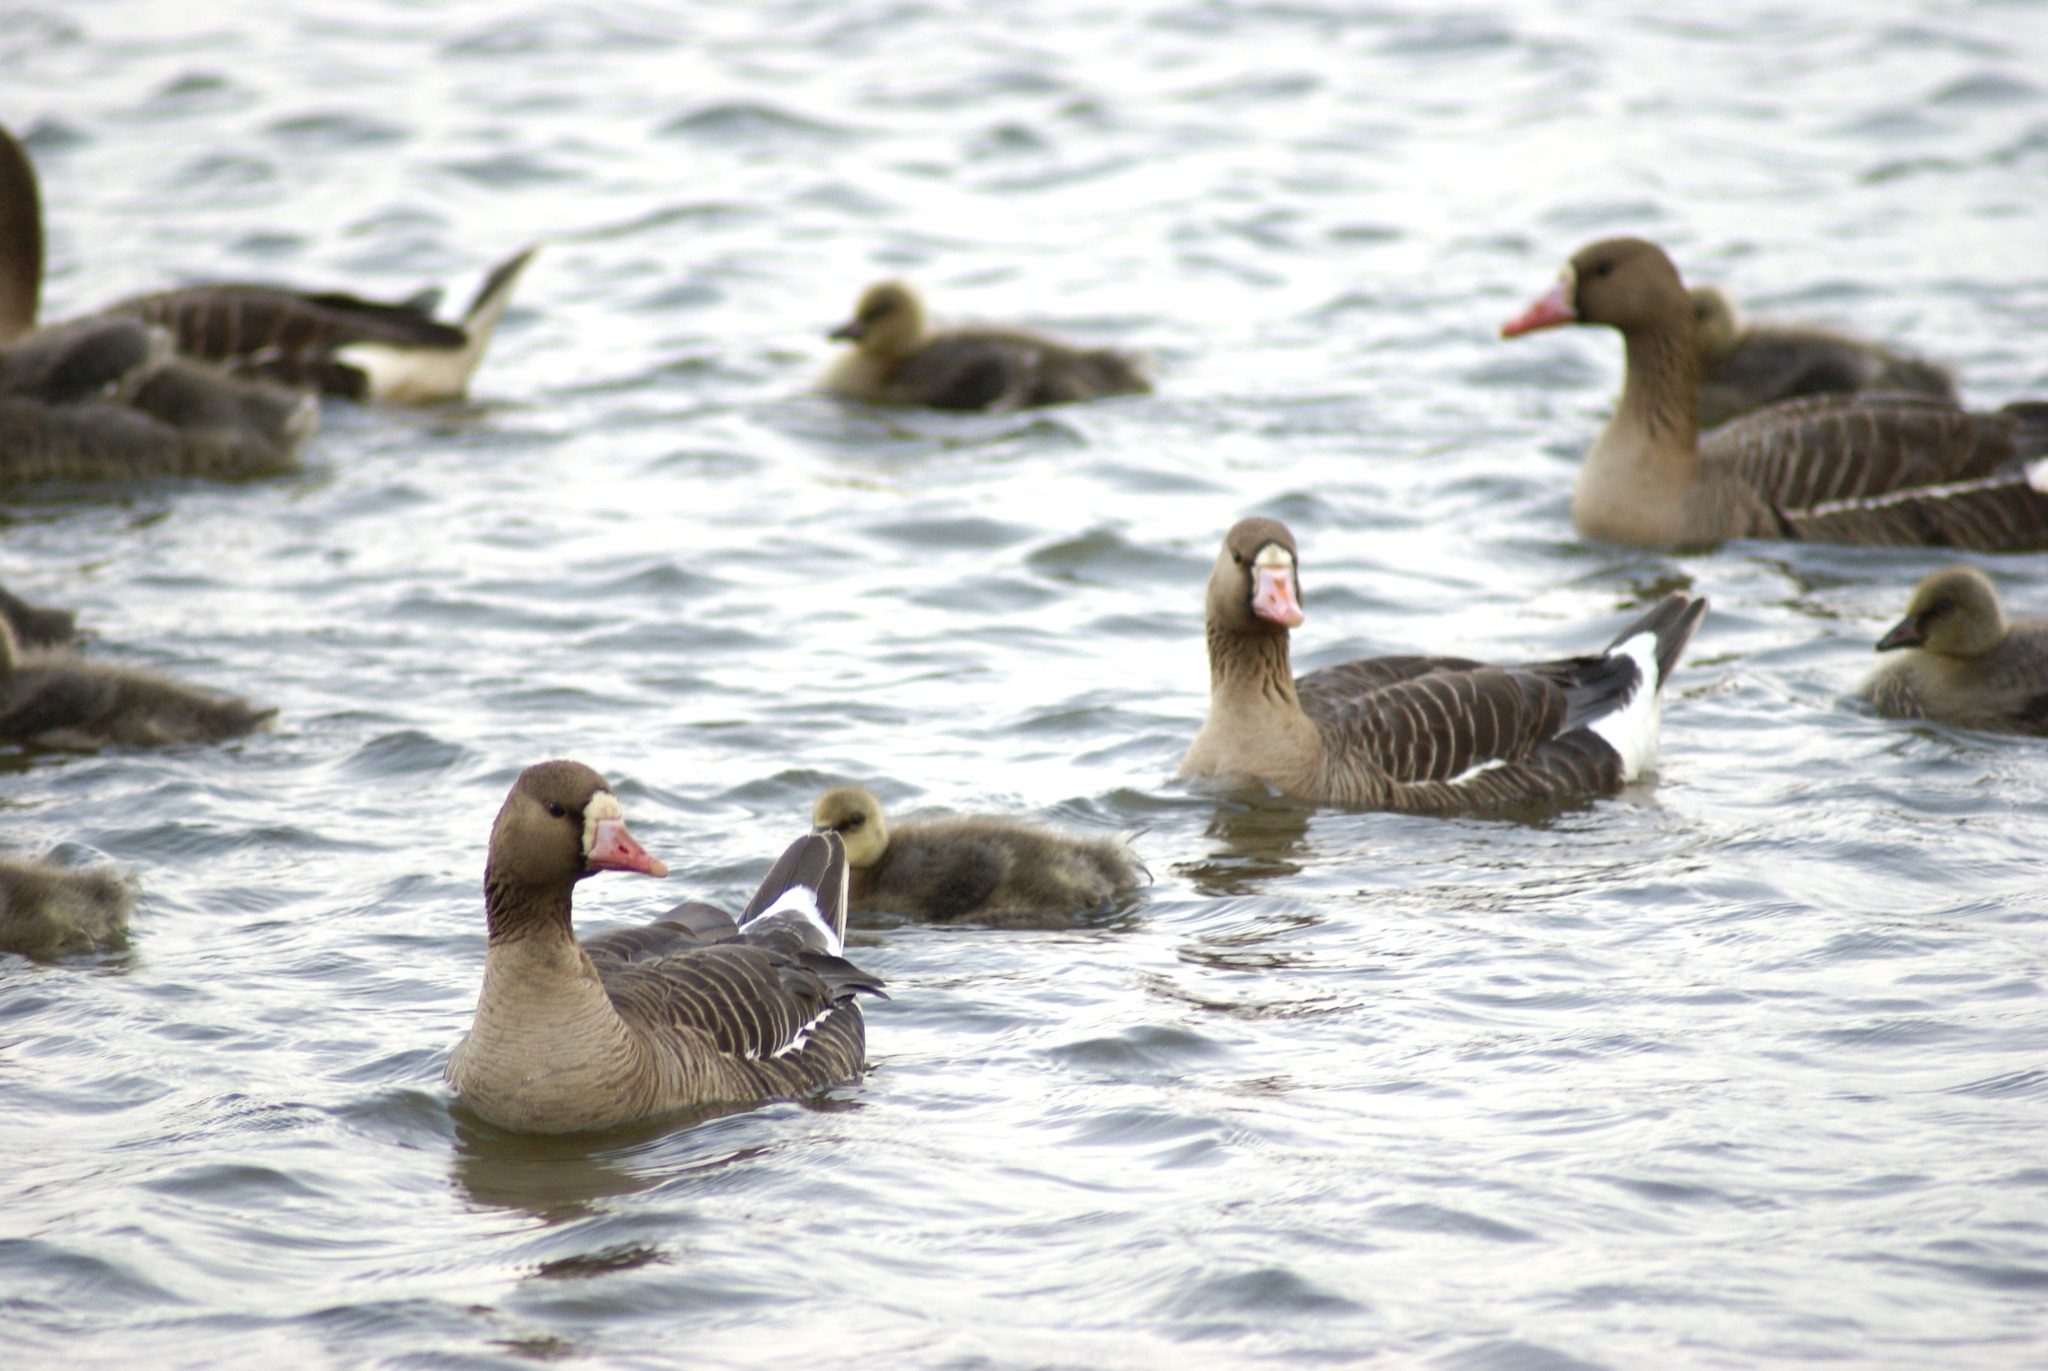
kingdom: Animalia
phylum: Chordata
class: Aves
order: Anseriformes
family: Anatidae
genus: Anser
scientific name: Anser albifrons
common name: Greater white-fronted goose
